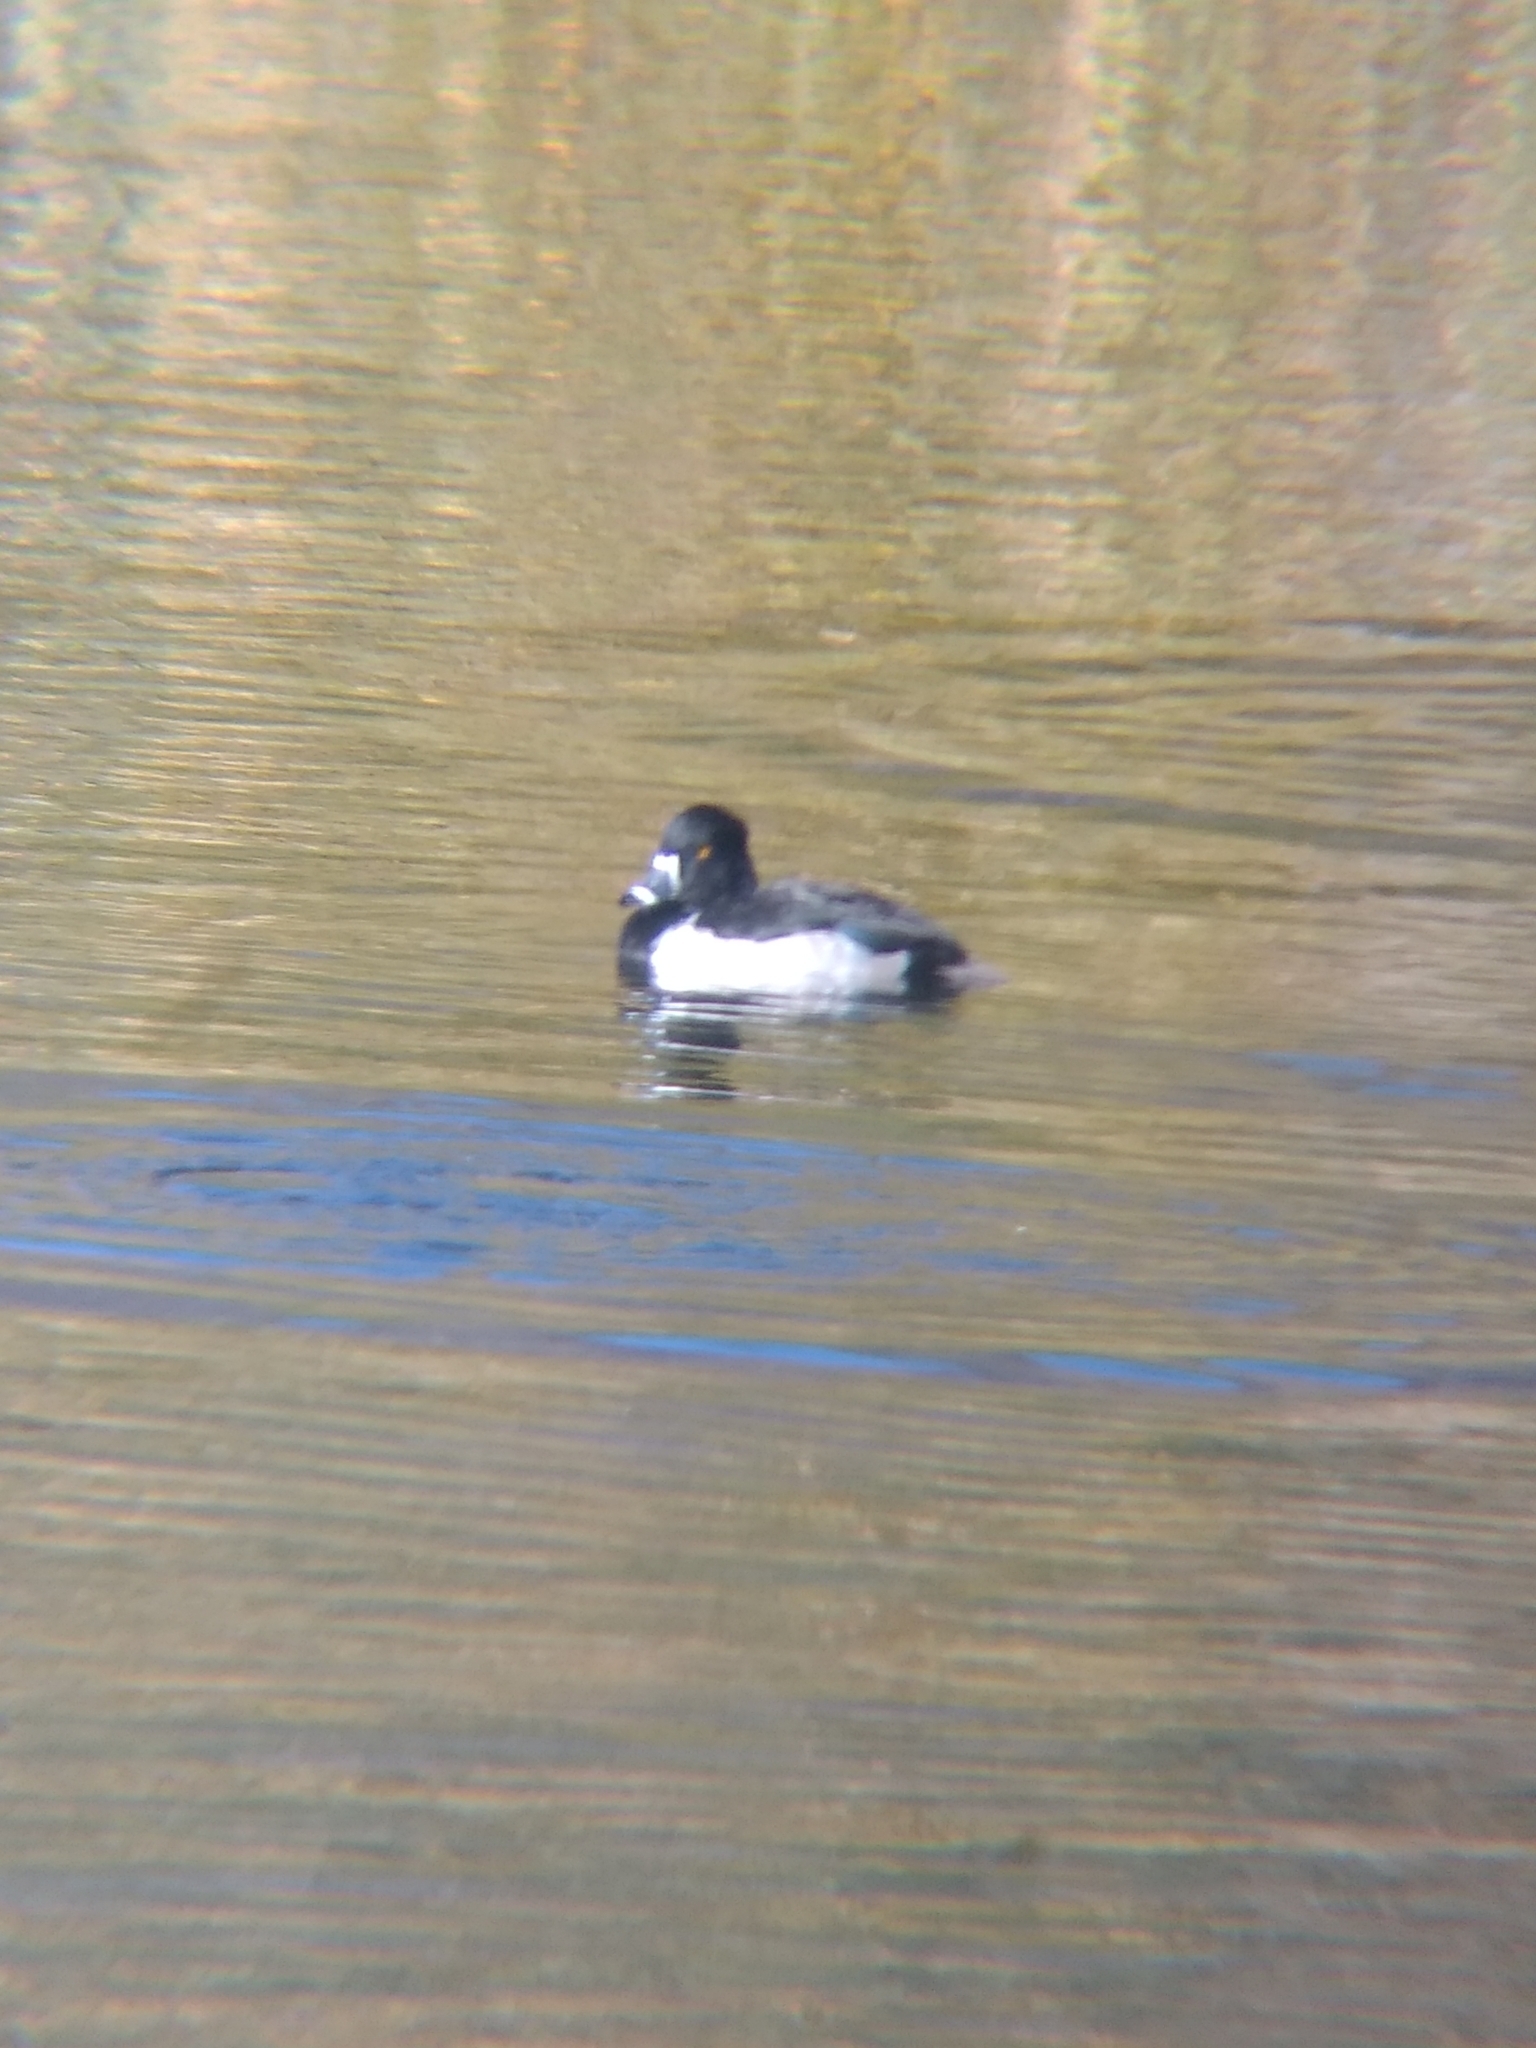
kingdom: Animalia
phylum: Chordata
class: Aves
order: Anseriformes
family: Anatidae
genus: Aythya
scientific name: Aythya collaris
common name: Ring-necked duck
